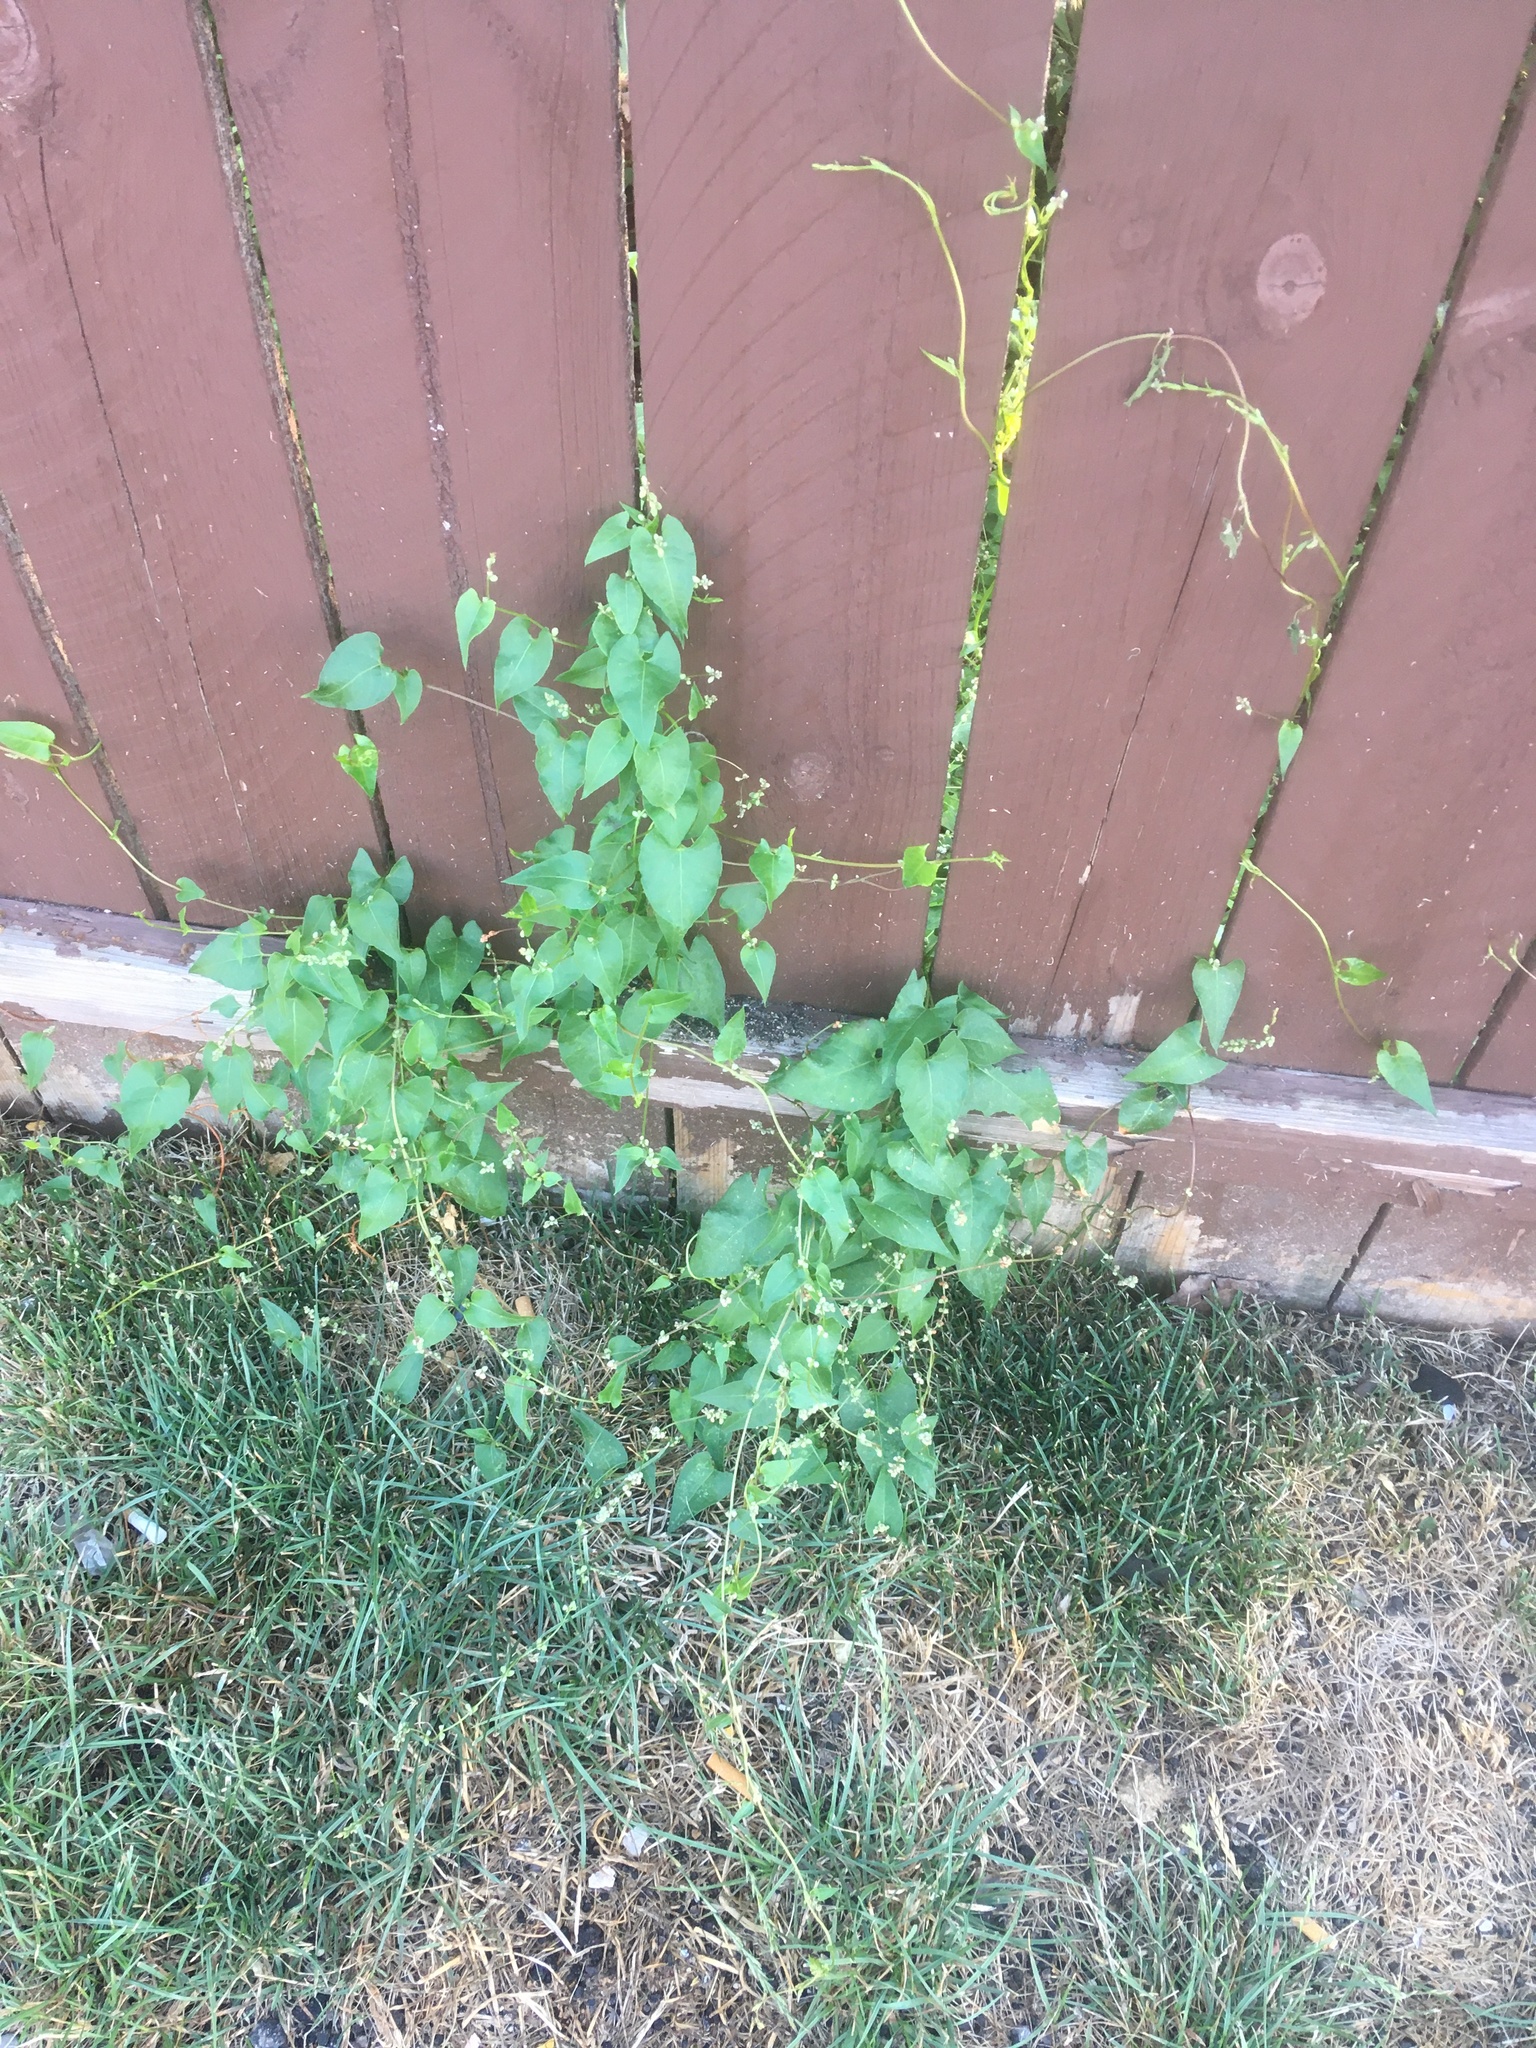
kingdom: Plantae
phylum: Tracheophyta
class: Magnoliopsida
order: Caryophyllales
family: Polygonaceae
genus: Fallopia
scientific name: Fallopia convolvulus
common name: Black bindweed
